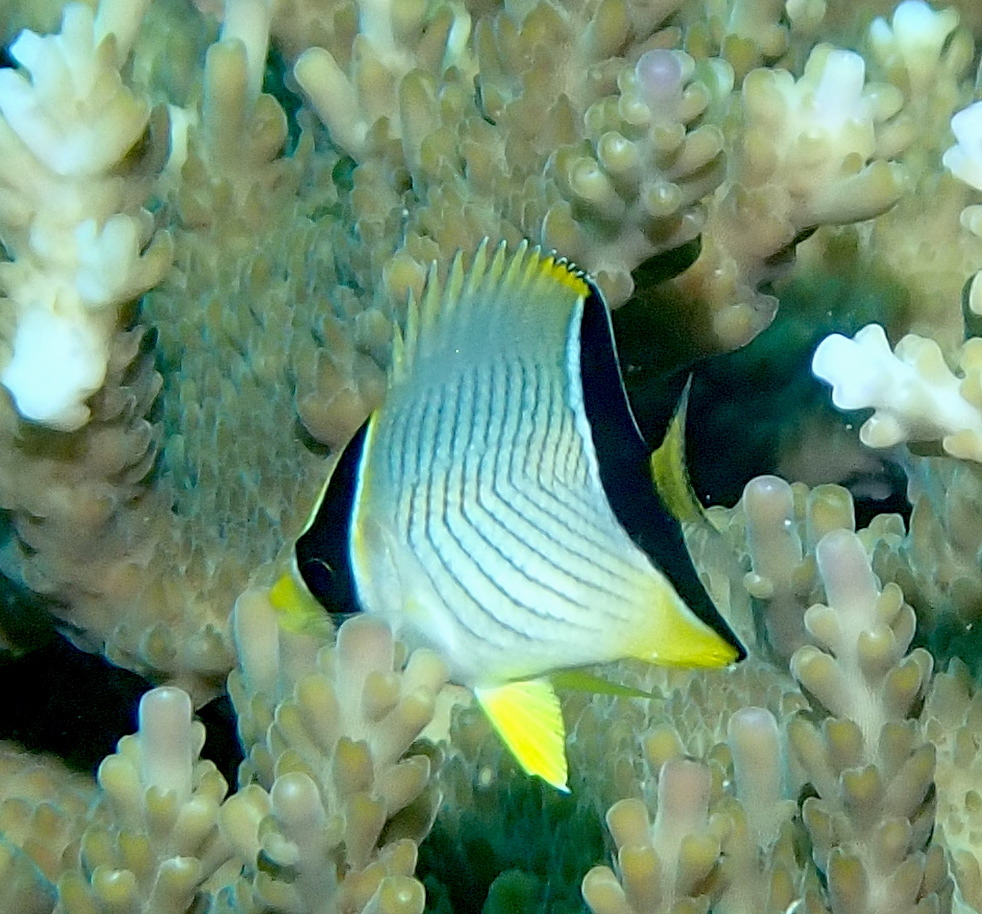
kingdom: Animalia
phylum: Chordata
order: Perciformes
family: Chaetodontidae
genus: Chaetodon
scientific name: Chaetodon trifascialis
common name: Chevroned butterflyfish
